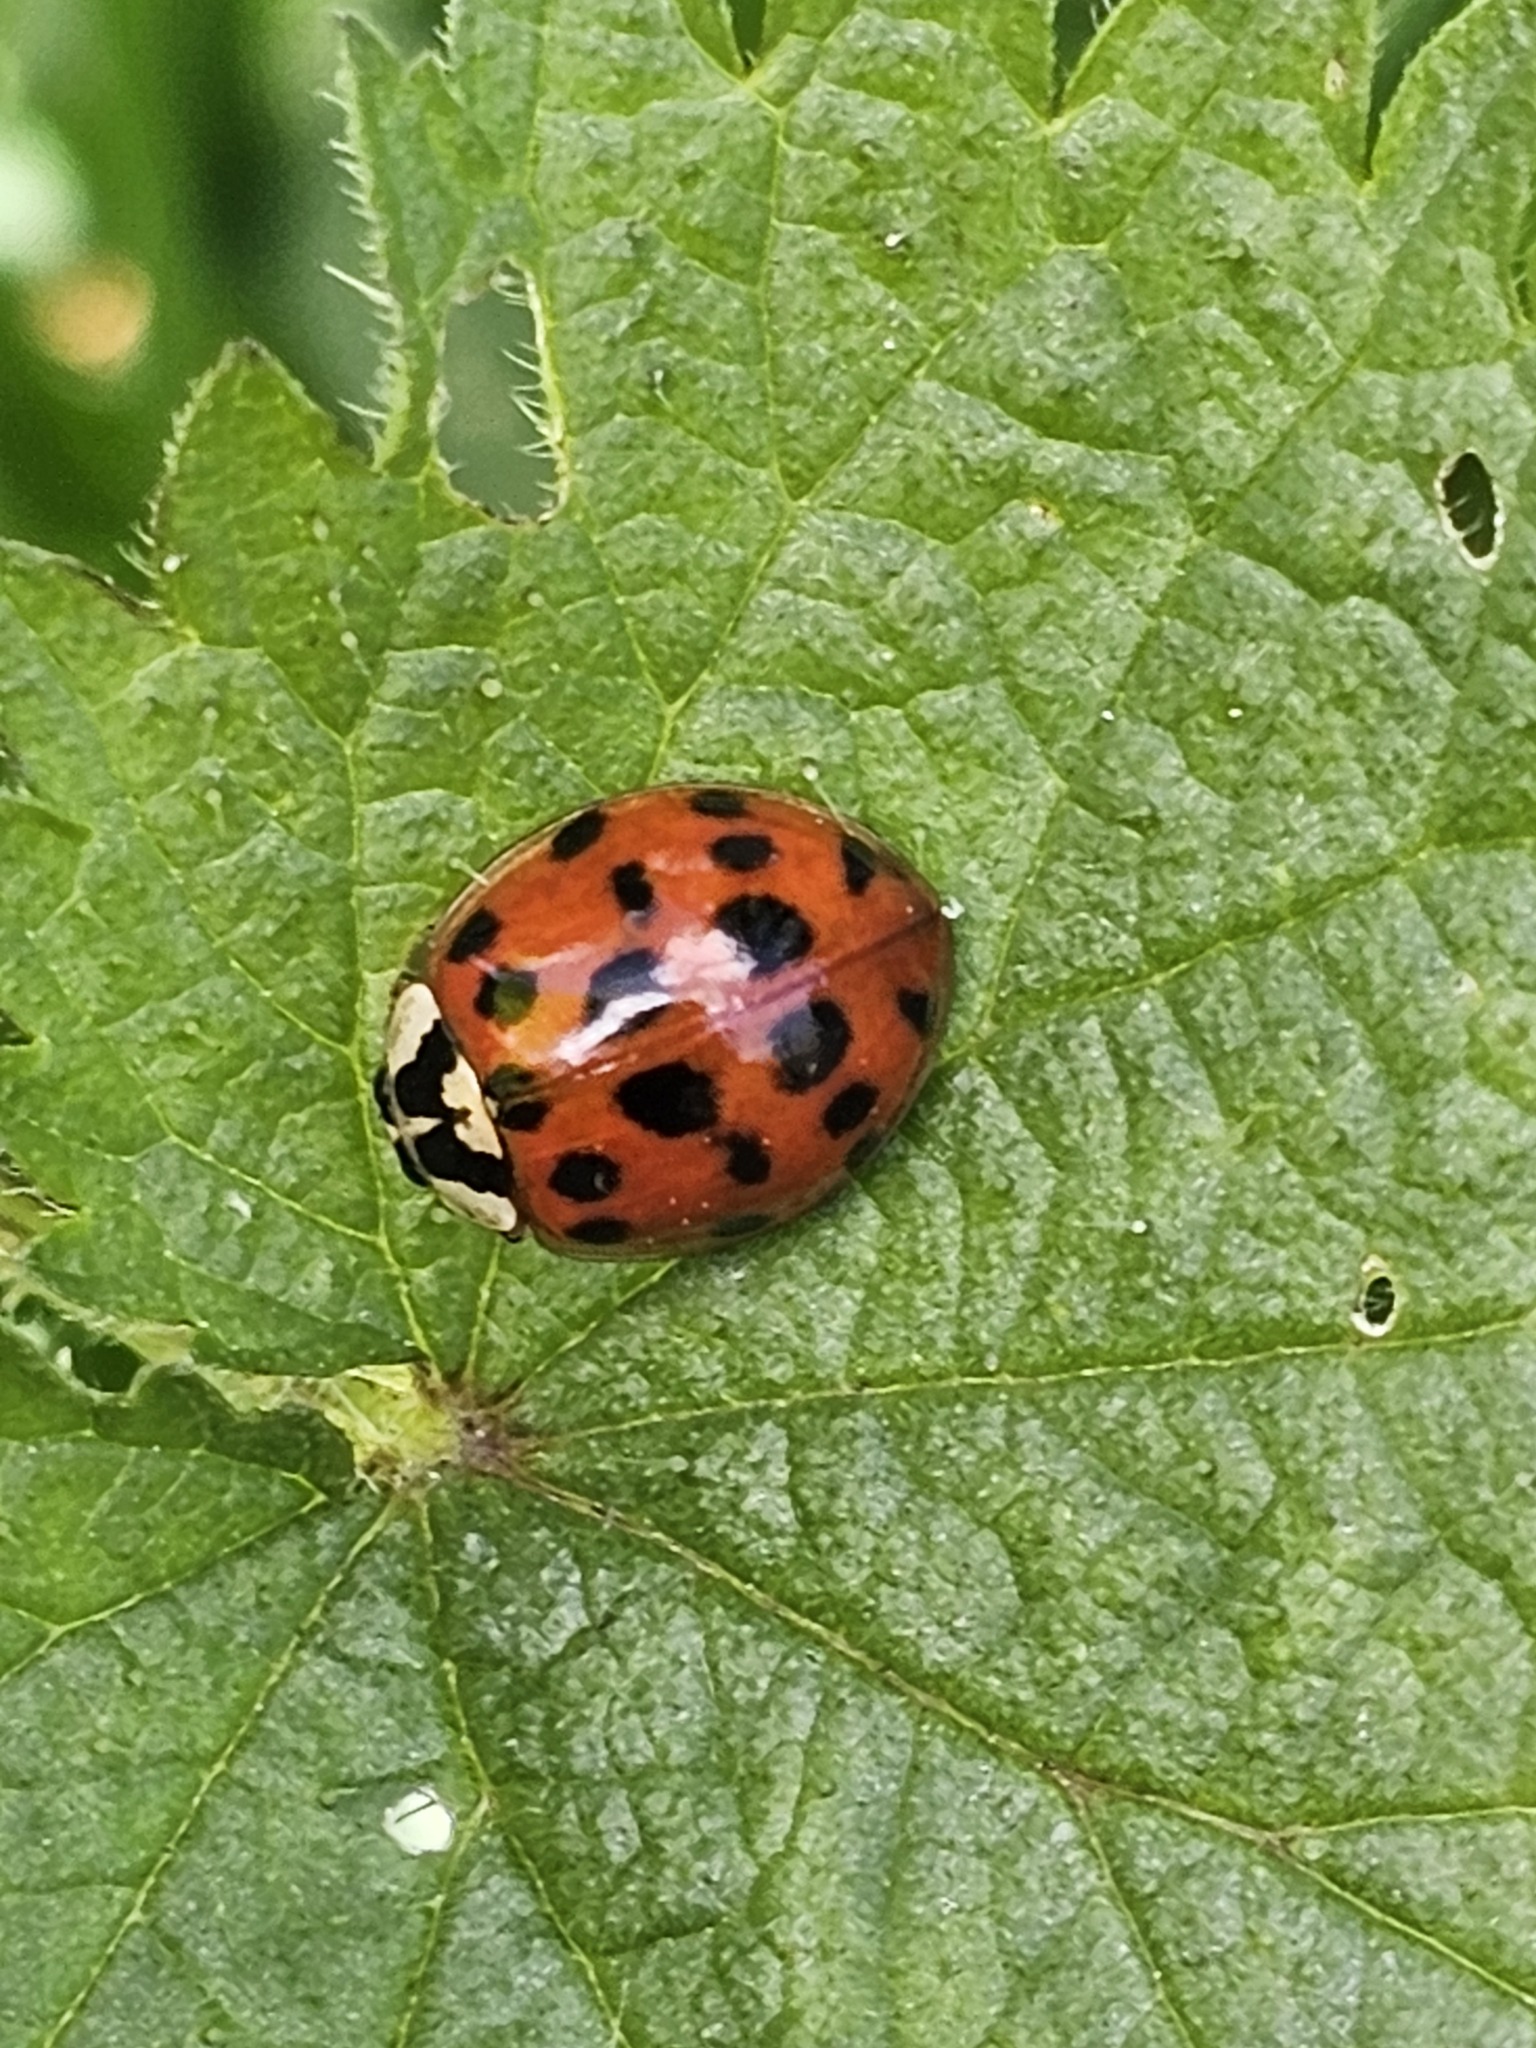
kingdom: Animalia
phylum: Arthropoda
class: Insecta
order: Coleoptera
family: Coccinellidae
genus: Harmonia
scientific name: Harmonia axyridis
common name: Harlequin ladybird
